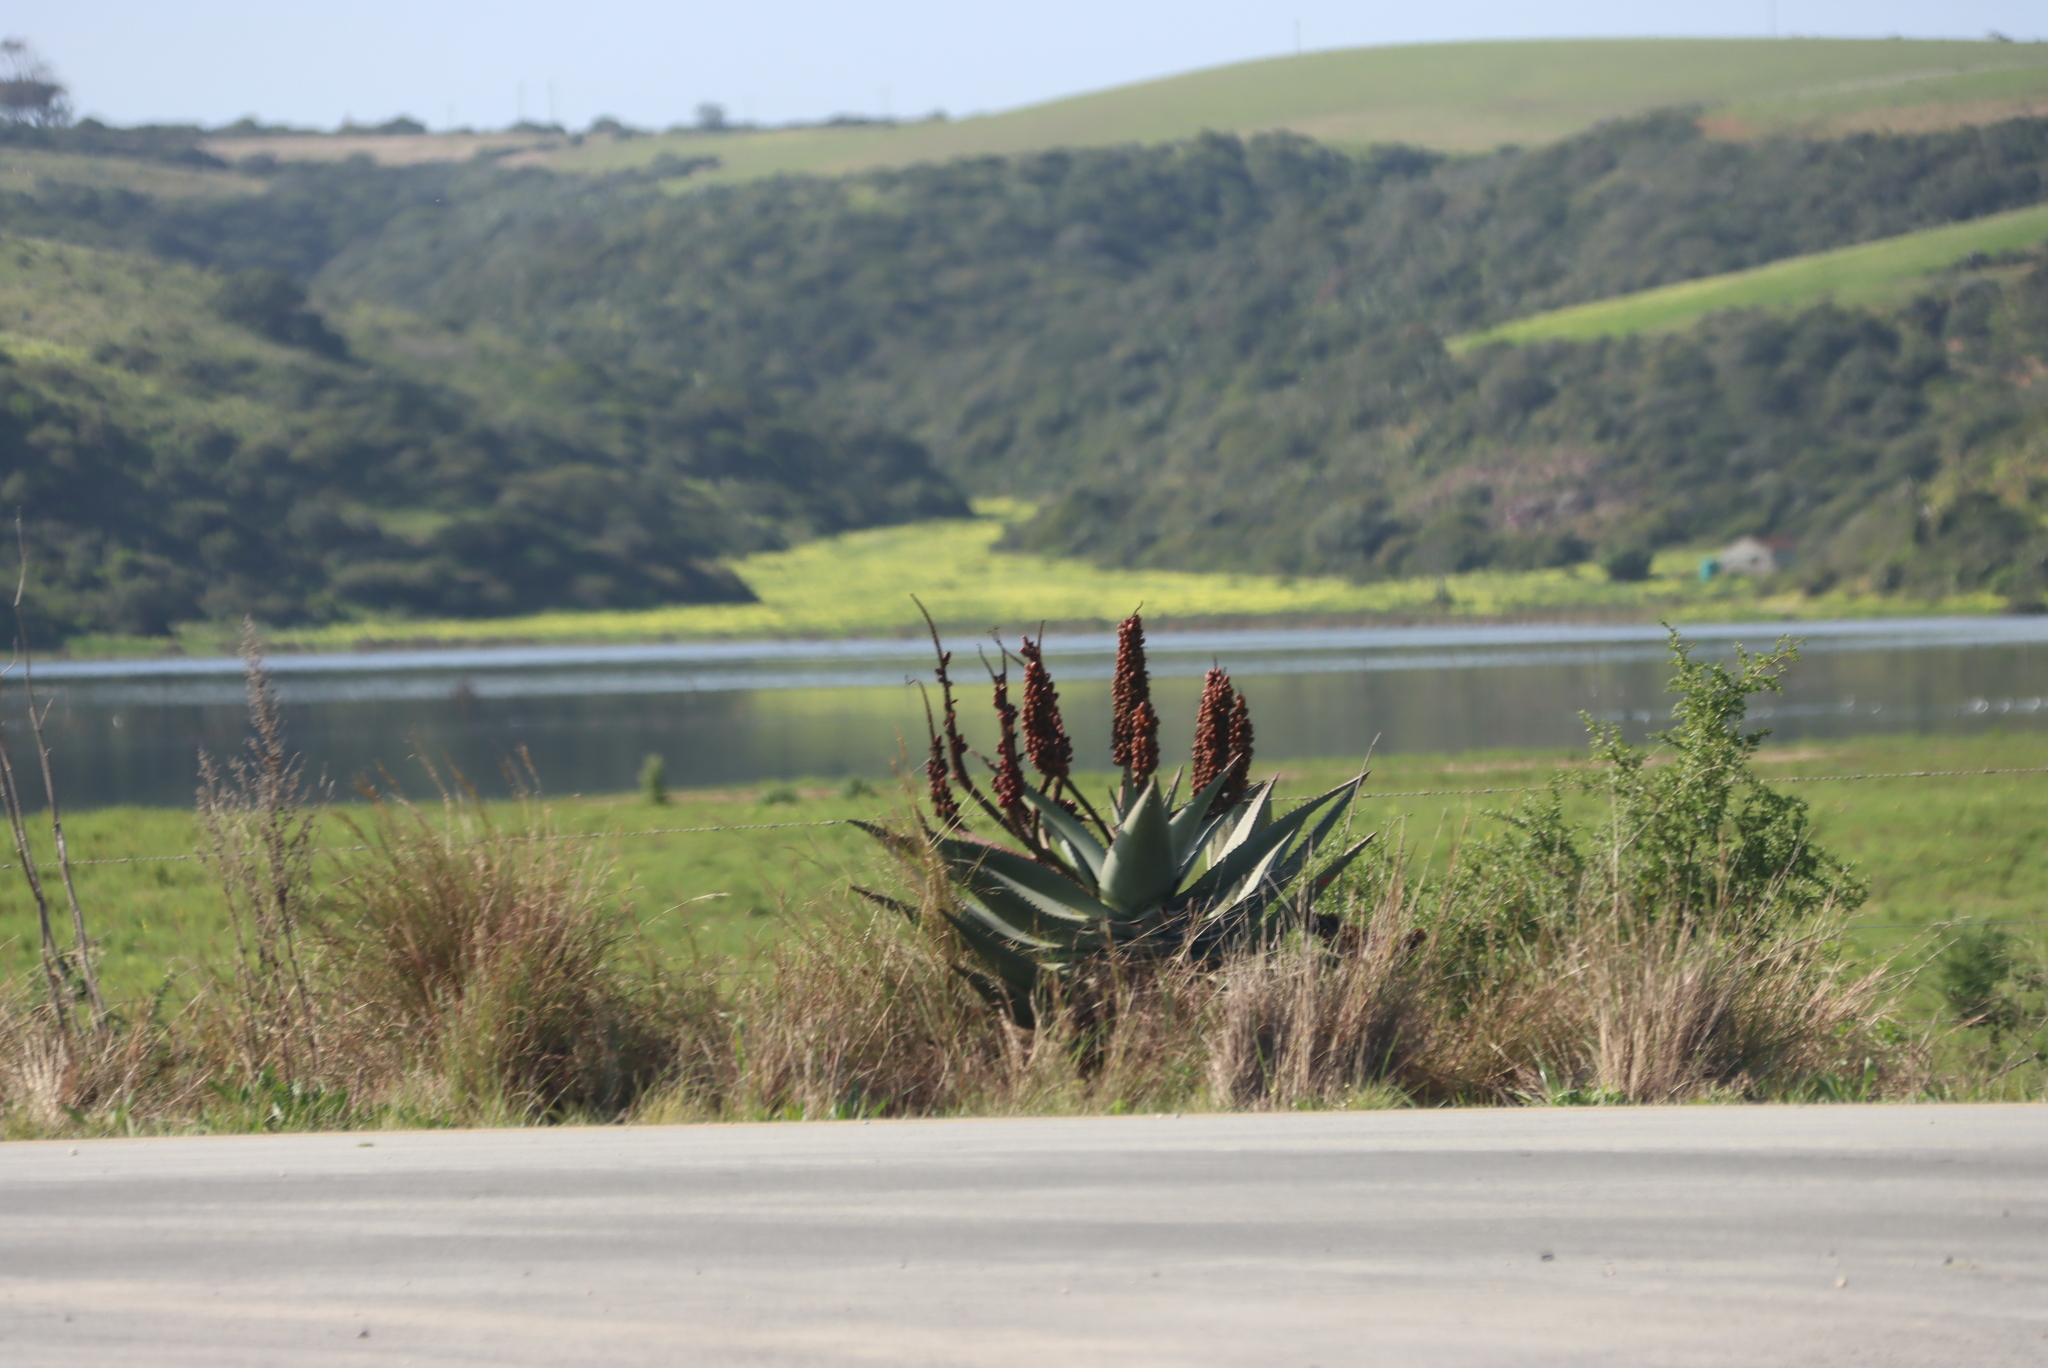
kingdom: Plantae
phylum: Tracheophyta
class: Liliopsida
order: Asparagales
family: Asphodelaceae
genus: Aloe
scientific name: Aloe ferox
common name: Bitter aloe
